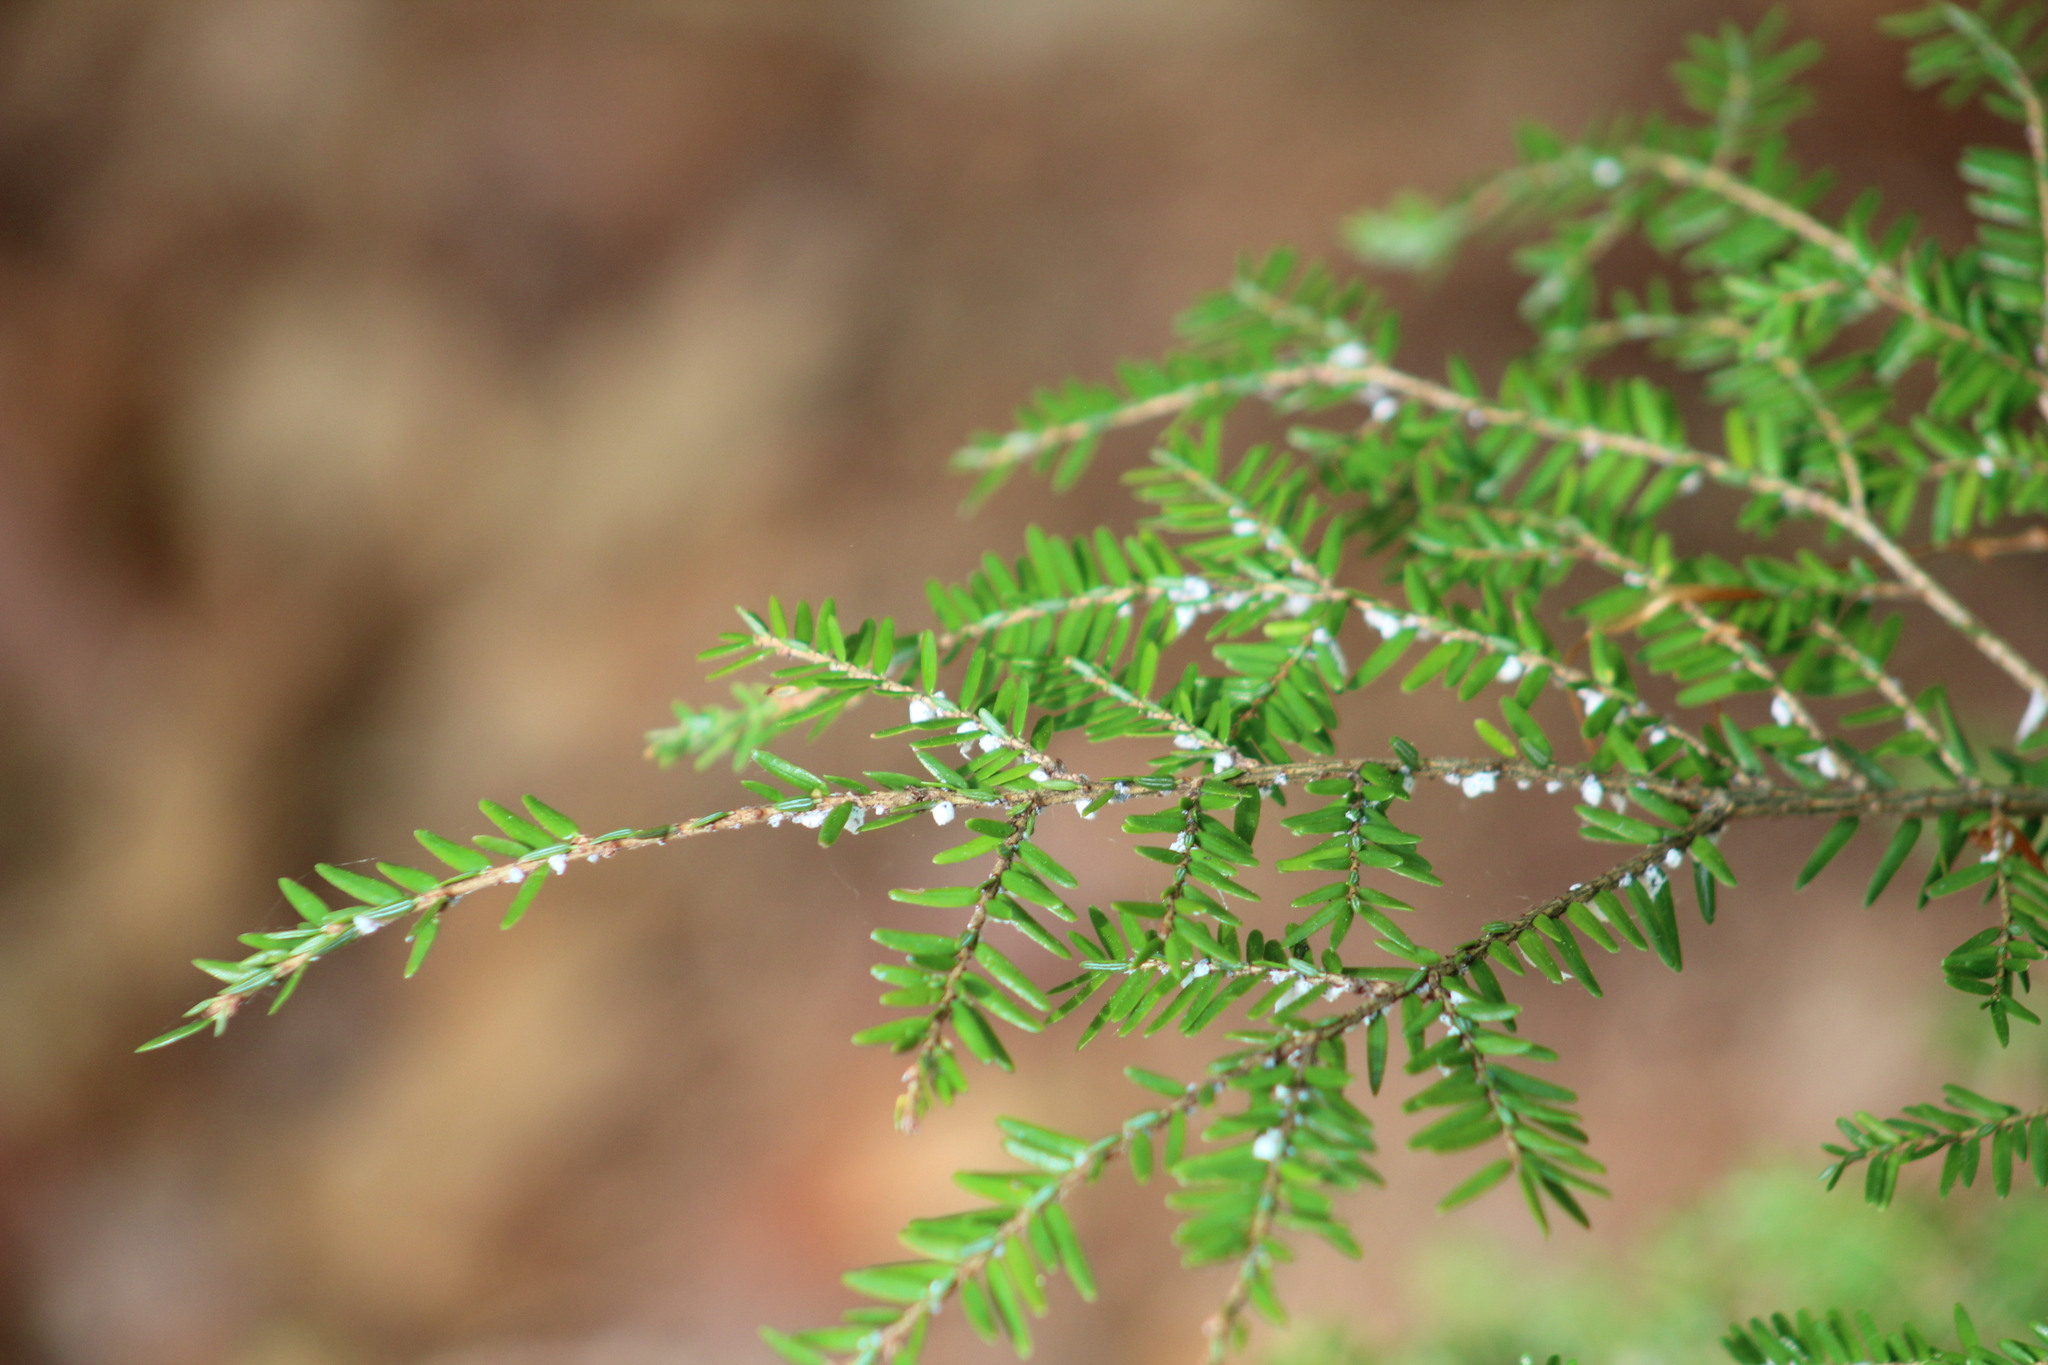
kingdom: Animalia
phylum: Arthropoda
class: Insecta
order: Hemiptera
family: Adelgidae
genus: Adelges
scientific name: Adelges tsugae
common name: Hemlock woolly adelgid
